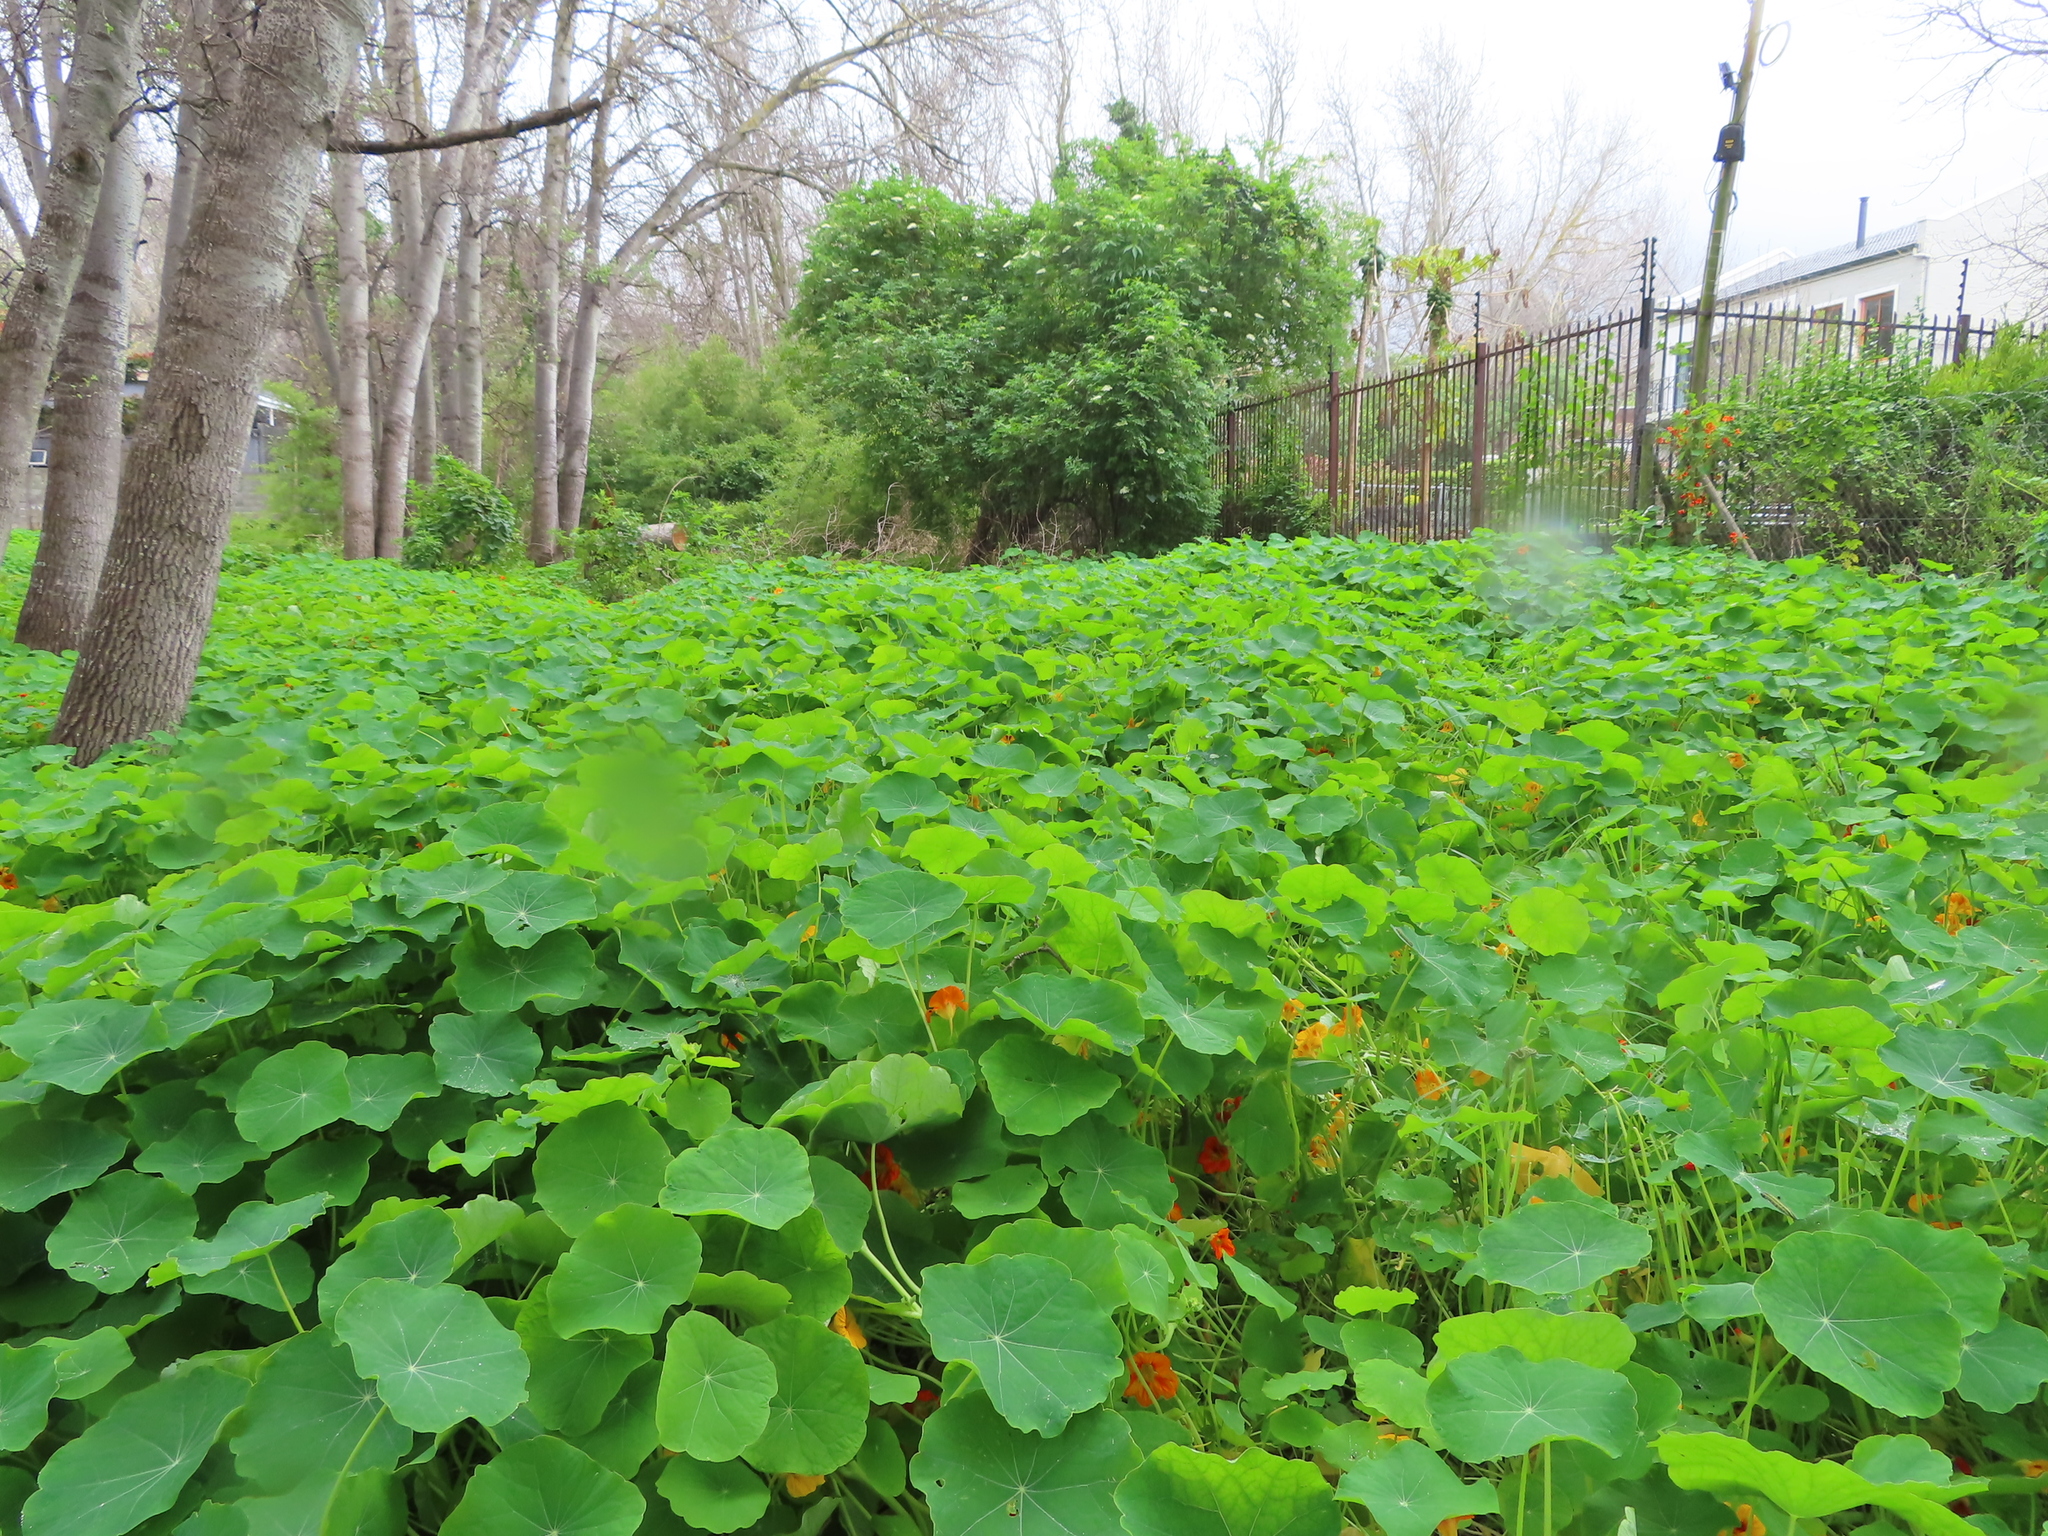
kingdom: Plantae
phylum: Tracheophyta
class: Magnoliopsida
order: Brassicales
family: Tropaeolaceae
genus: Tropaeolum
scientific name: Tropaeolum majus
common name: Nasturtium
